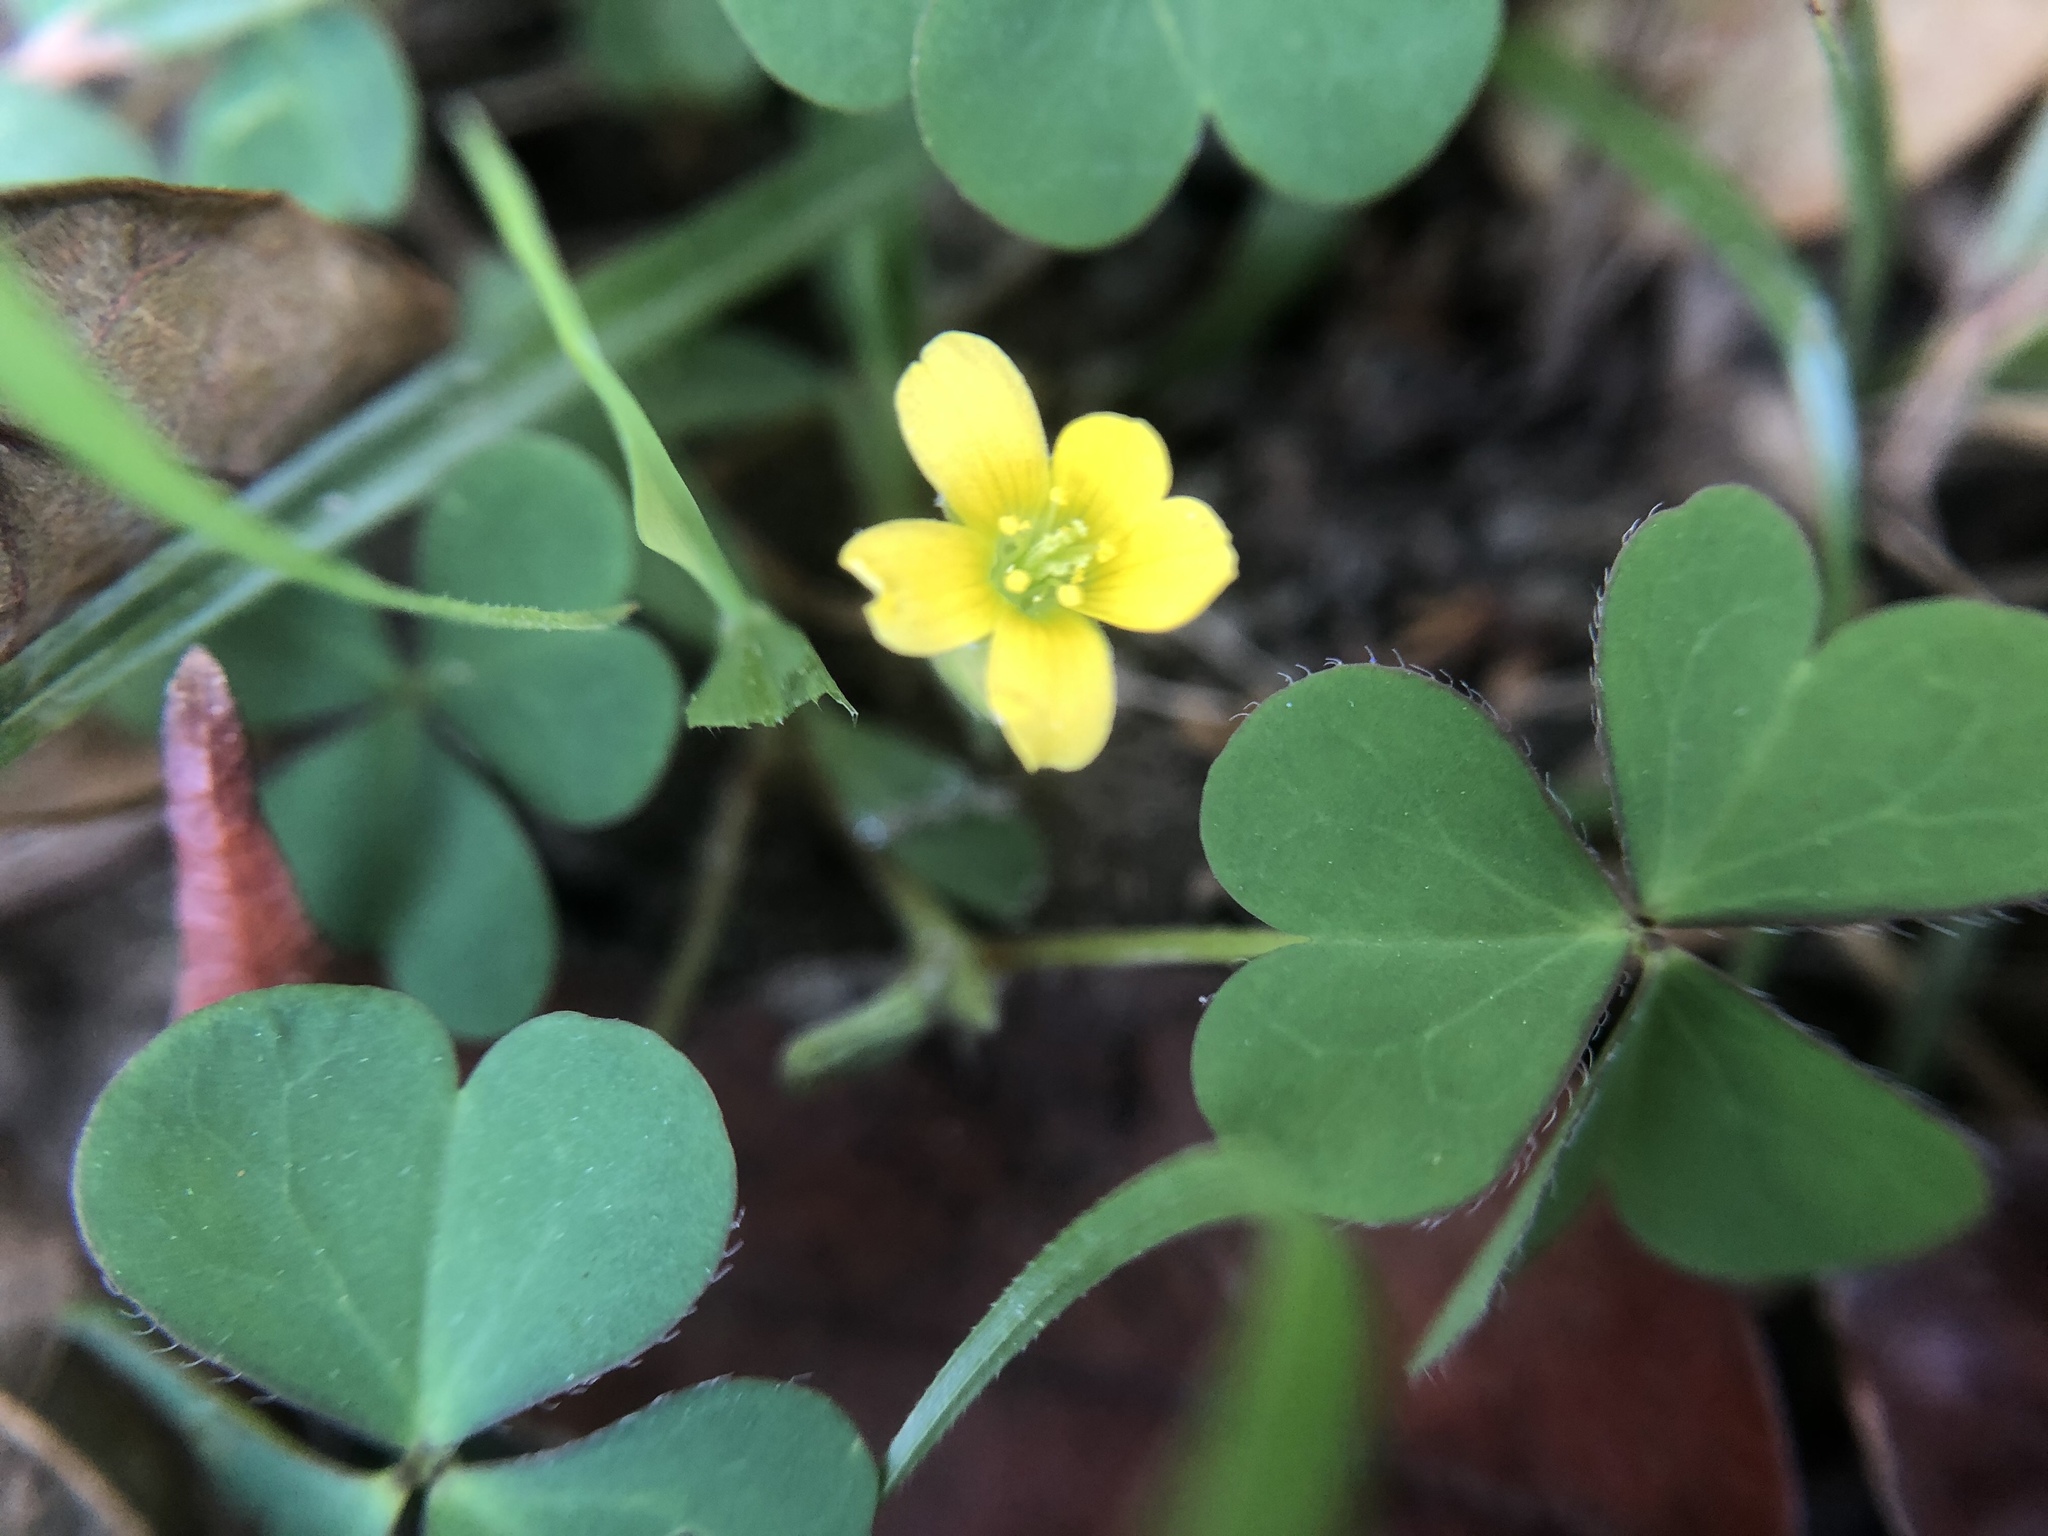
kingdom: Plantae
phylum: Tracheophyta
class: Magnoliopsida
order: Oxalidales
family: Oxalidaceae
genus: Oxalis
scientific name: Oxalis corniculata
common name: Procumbent yellow-sorrel
